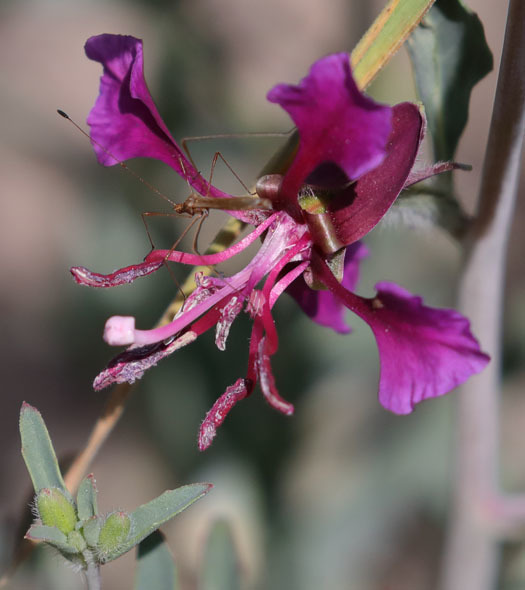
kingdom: Plantae
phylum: Tracheophyta
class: Magnoliopsida
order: Myrtales
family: Onagraceae
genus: Clarkia
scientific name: Clarkia unguiculata
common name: Clarkia
